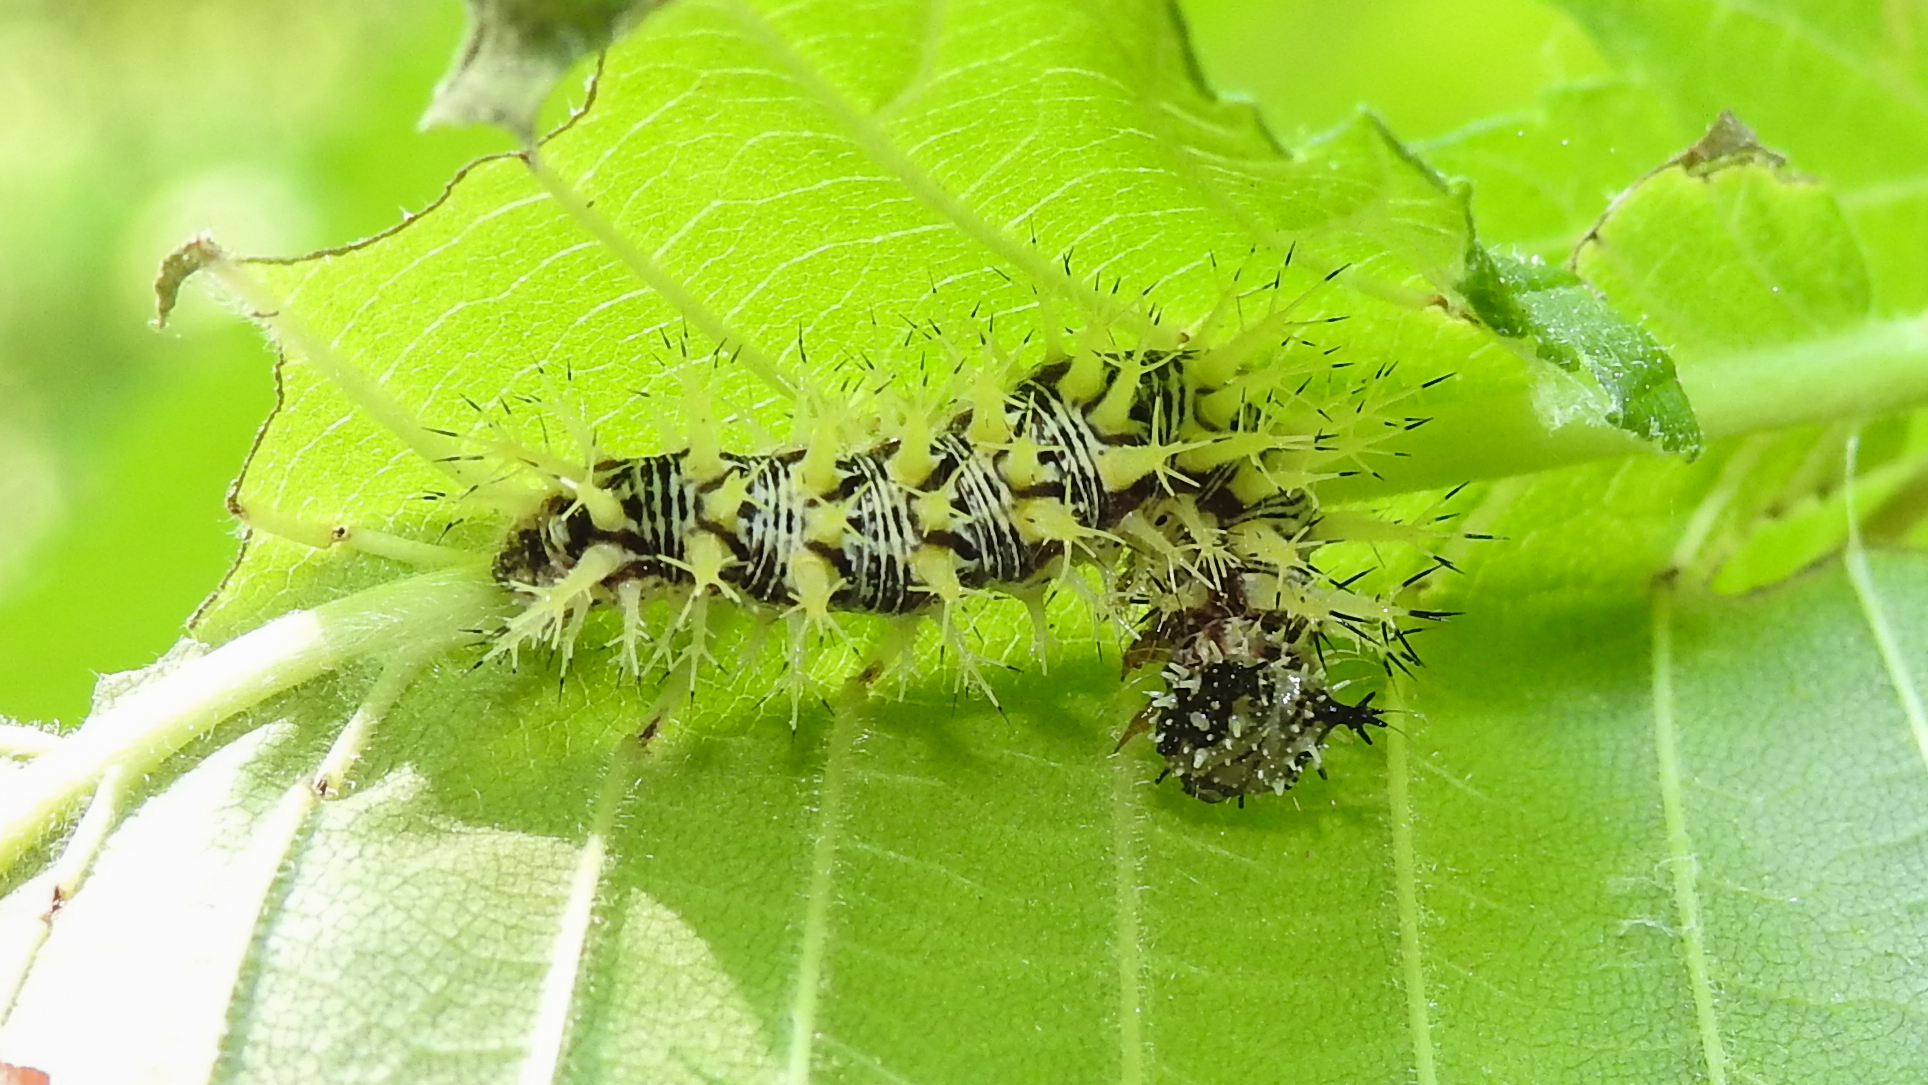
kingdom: Animalia
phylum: Arthropoda
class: Insecta
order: Lepidoptera
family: Nymphalidae
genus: Polygonia
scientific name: Polygonia comma
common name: Eastern comma
